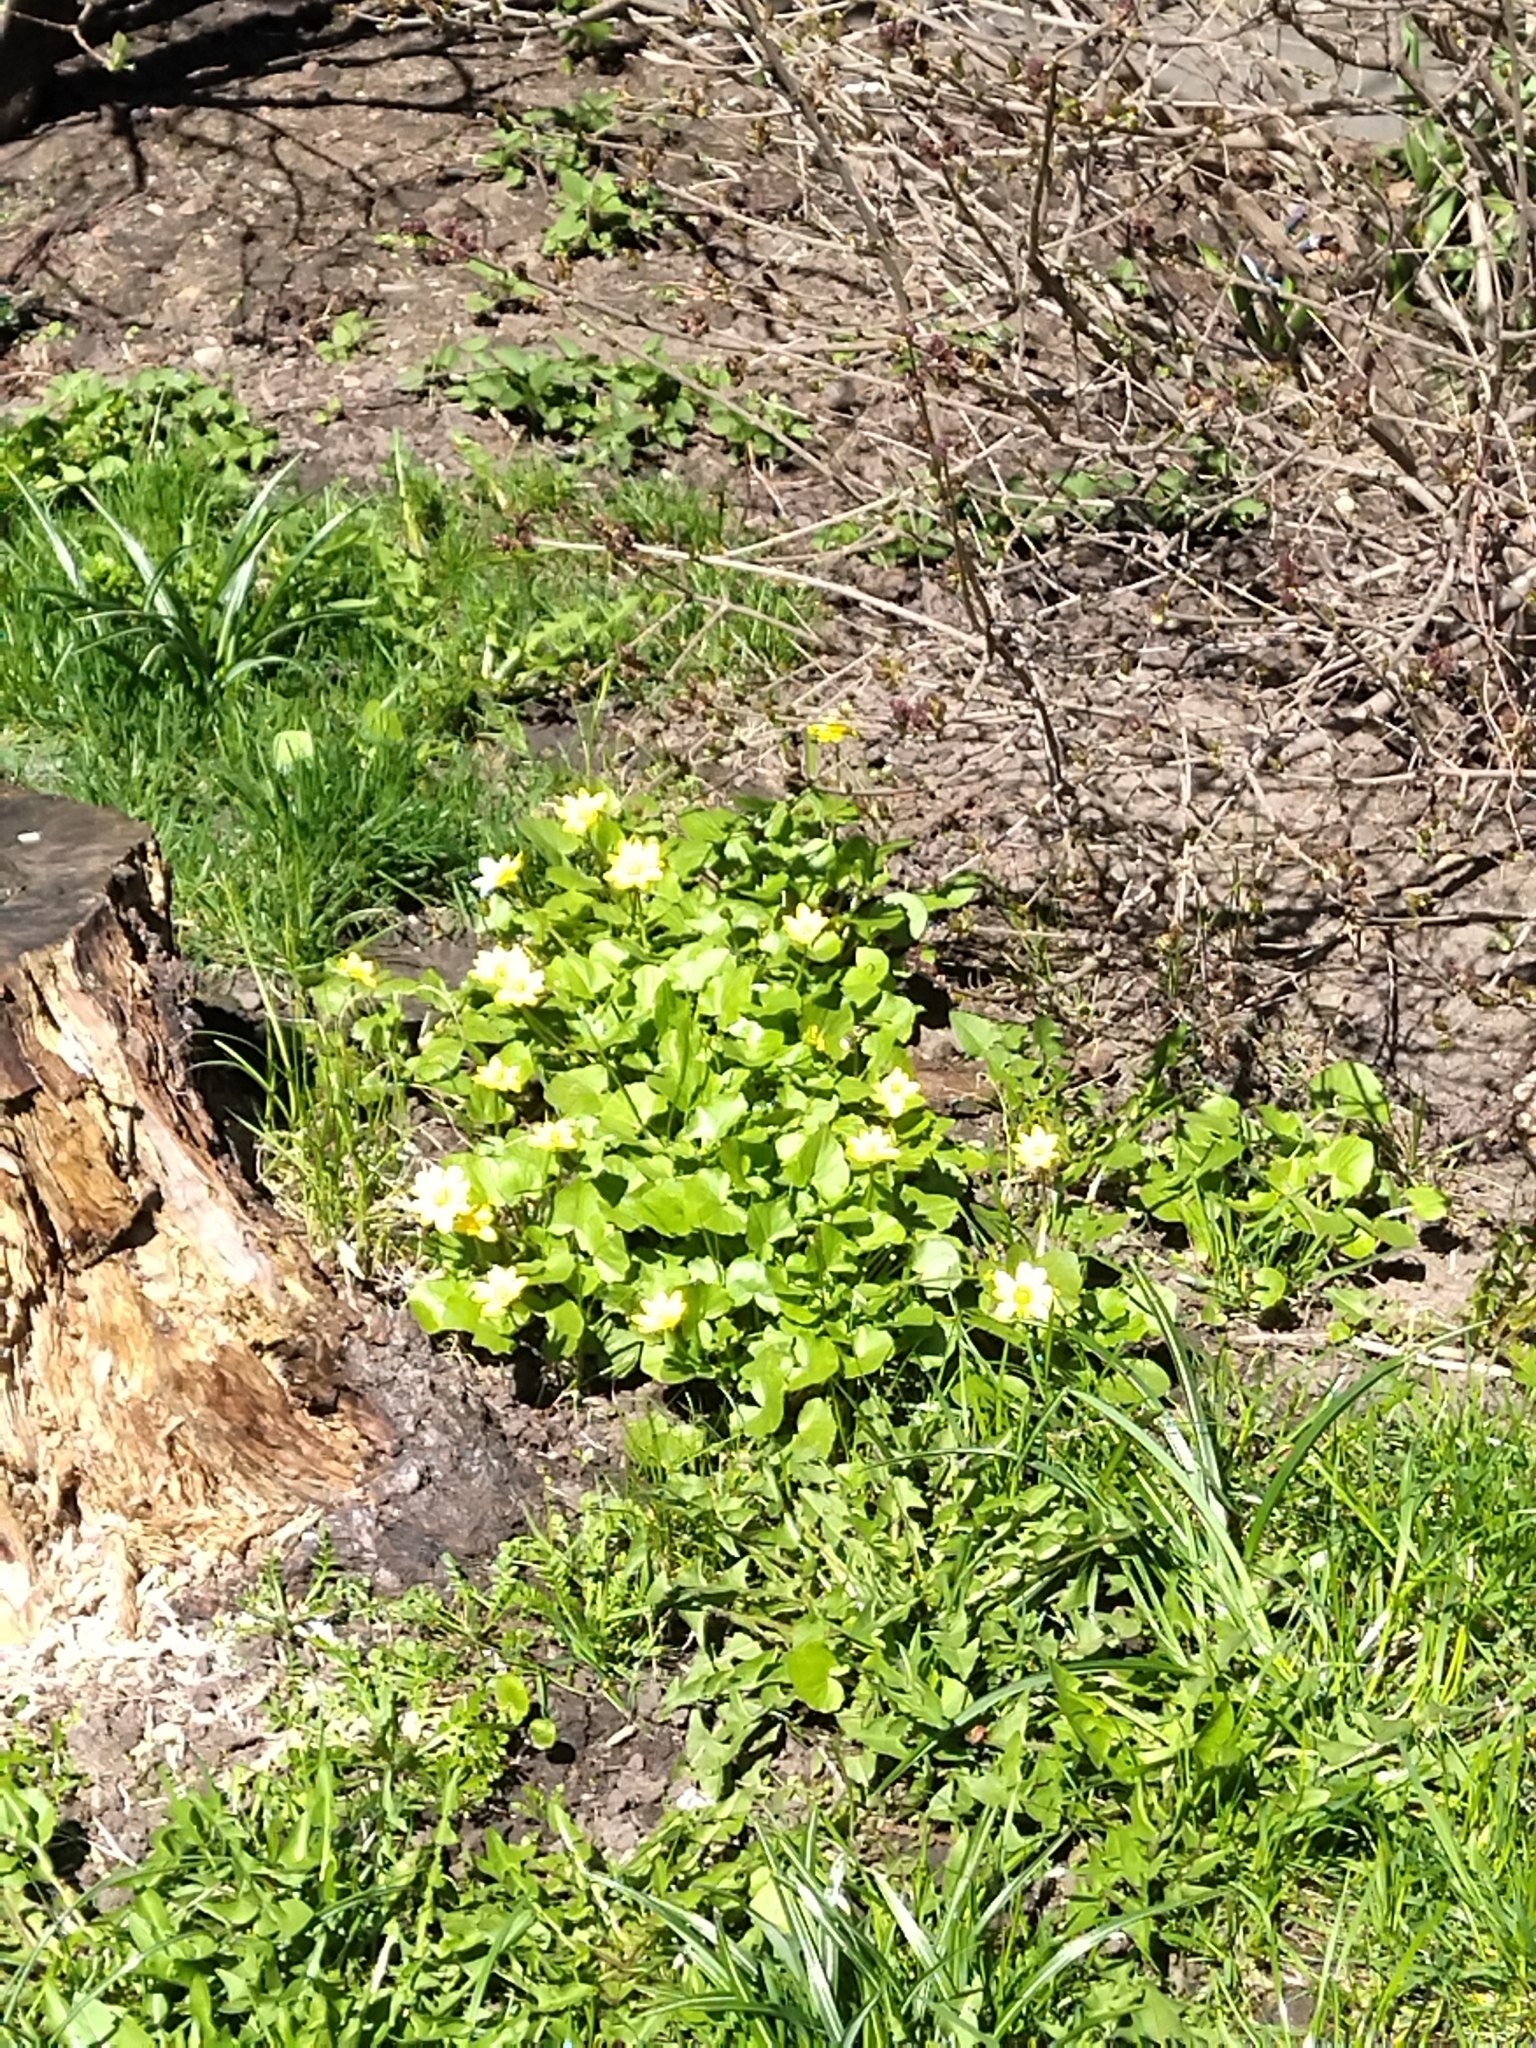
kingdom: Plantae
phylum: Tracheophyta
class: Magnoliopsida
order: Ranunculales
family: Ranunculaceae
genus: Ficaria
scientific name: Ficaria verna
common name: Lesser celandine
